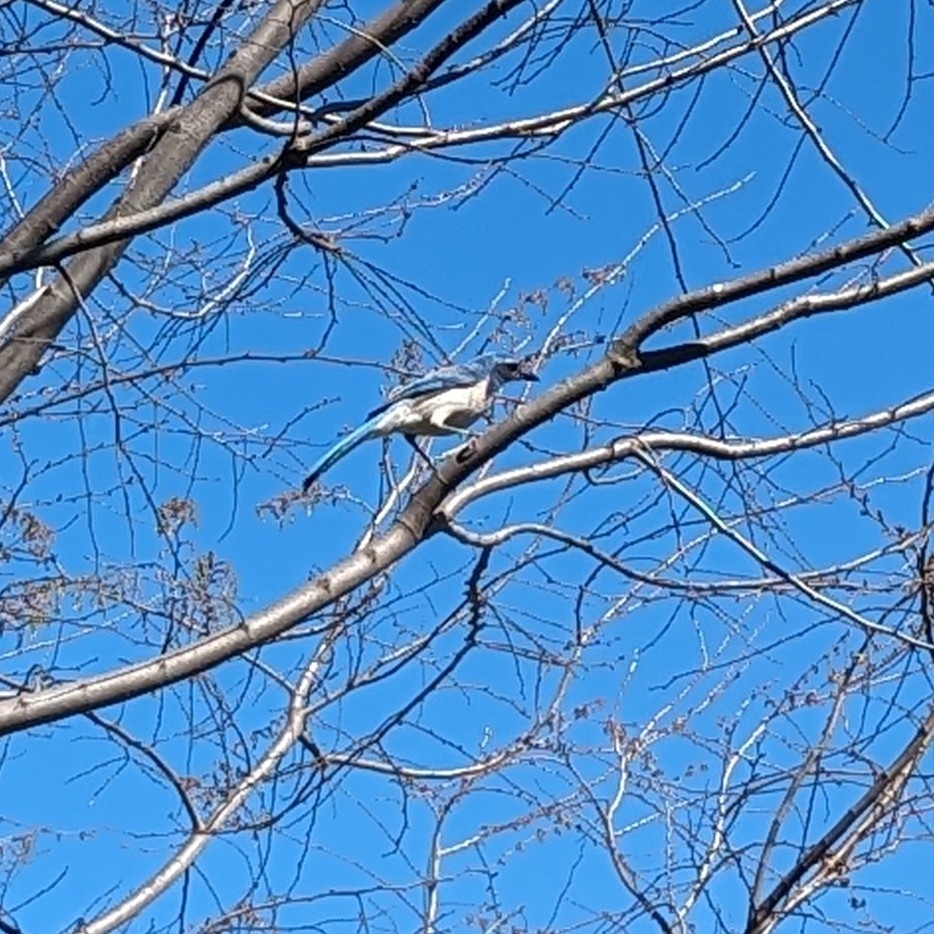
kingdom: Animalia
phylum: Chordata
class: Aves
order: Passeriformes
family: Corvidae
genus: Aphelocoma
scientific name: Aphelocoma californica
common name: California scrub-jay
